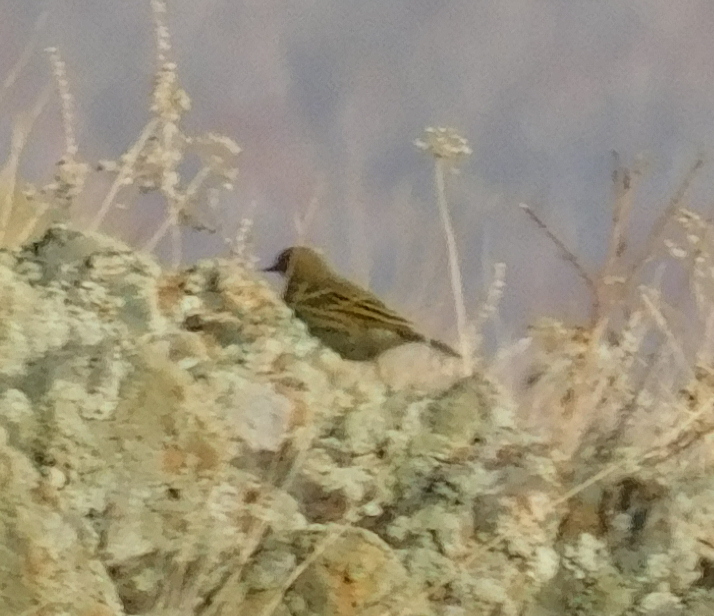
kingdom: Animalia
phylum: Chordata
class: Aves
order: Passeriformes
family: Motacillidae
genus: Anthus
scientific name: Anthus pratensis
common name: Meadow pipit
